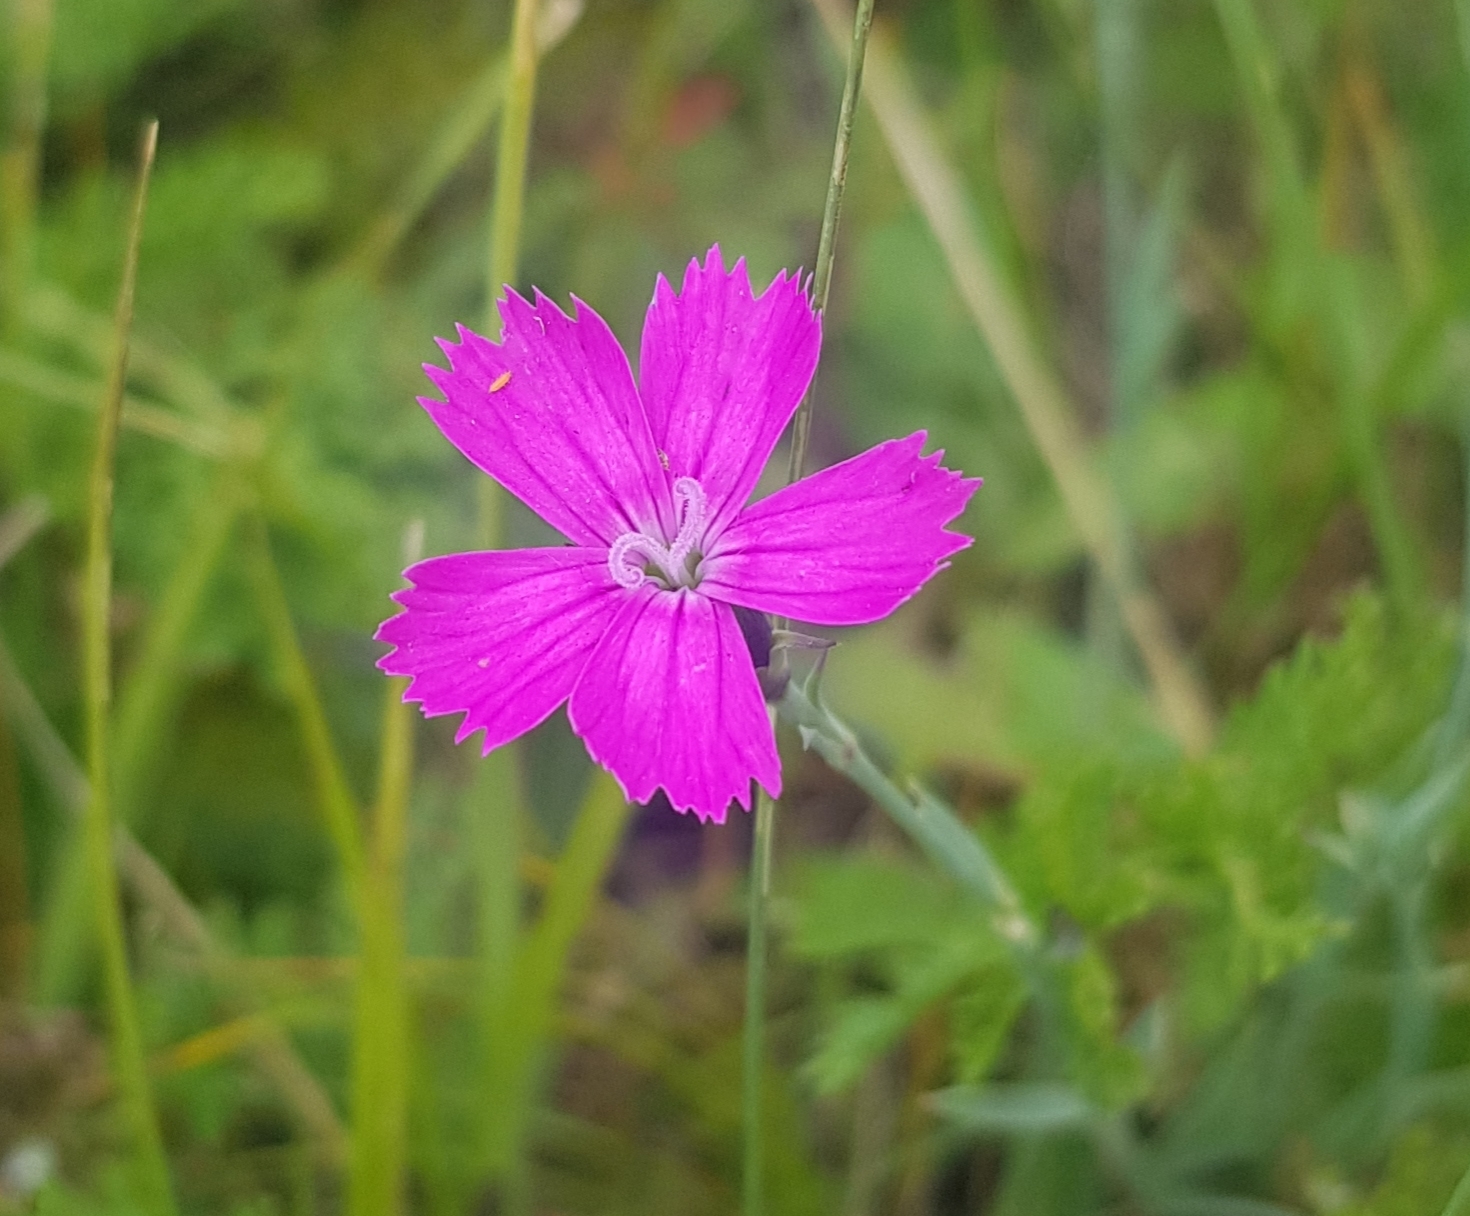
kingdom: Plantae
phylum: Tracheophyta
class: Magnoliopsida
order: Caryophyllales
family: Caryophyllaceae
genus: Dianthus
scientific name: Dianthus chinensis
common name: Rainbow pink
